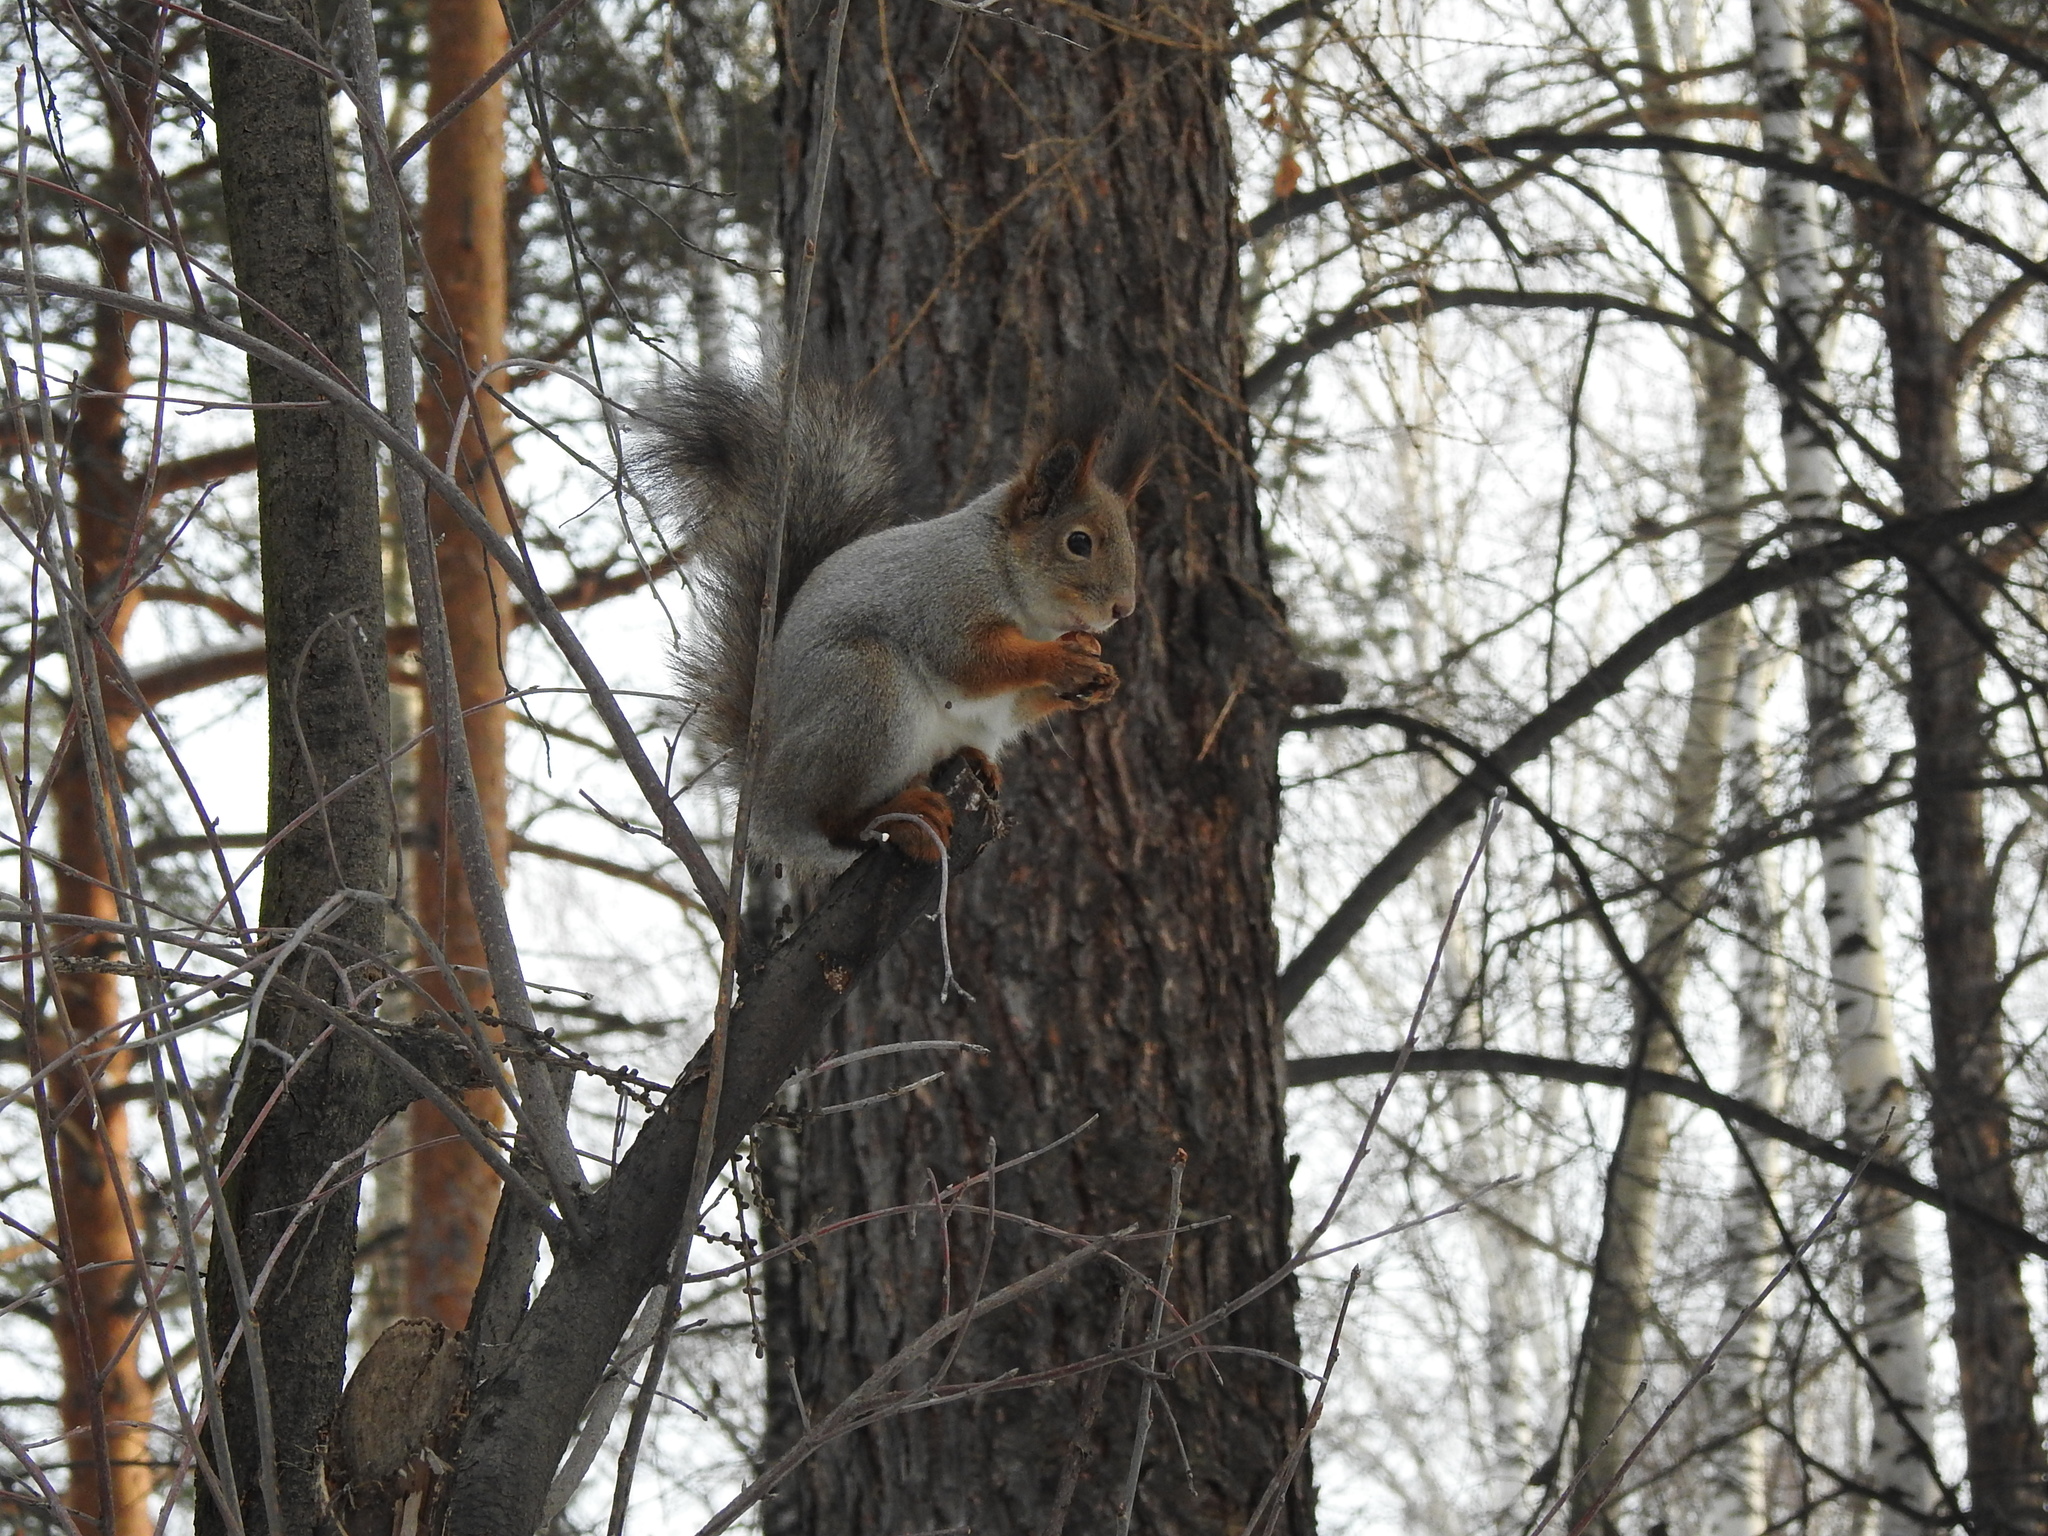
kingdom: Animalia
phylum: Chordata
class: Mammalia
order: Rodentia
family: Sciuridae
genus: Sciurus
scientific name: Sciurus vulgaris
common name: Eurasian red squirrel
